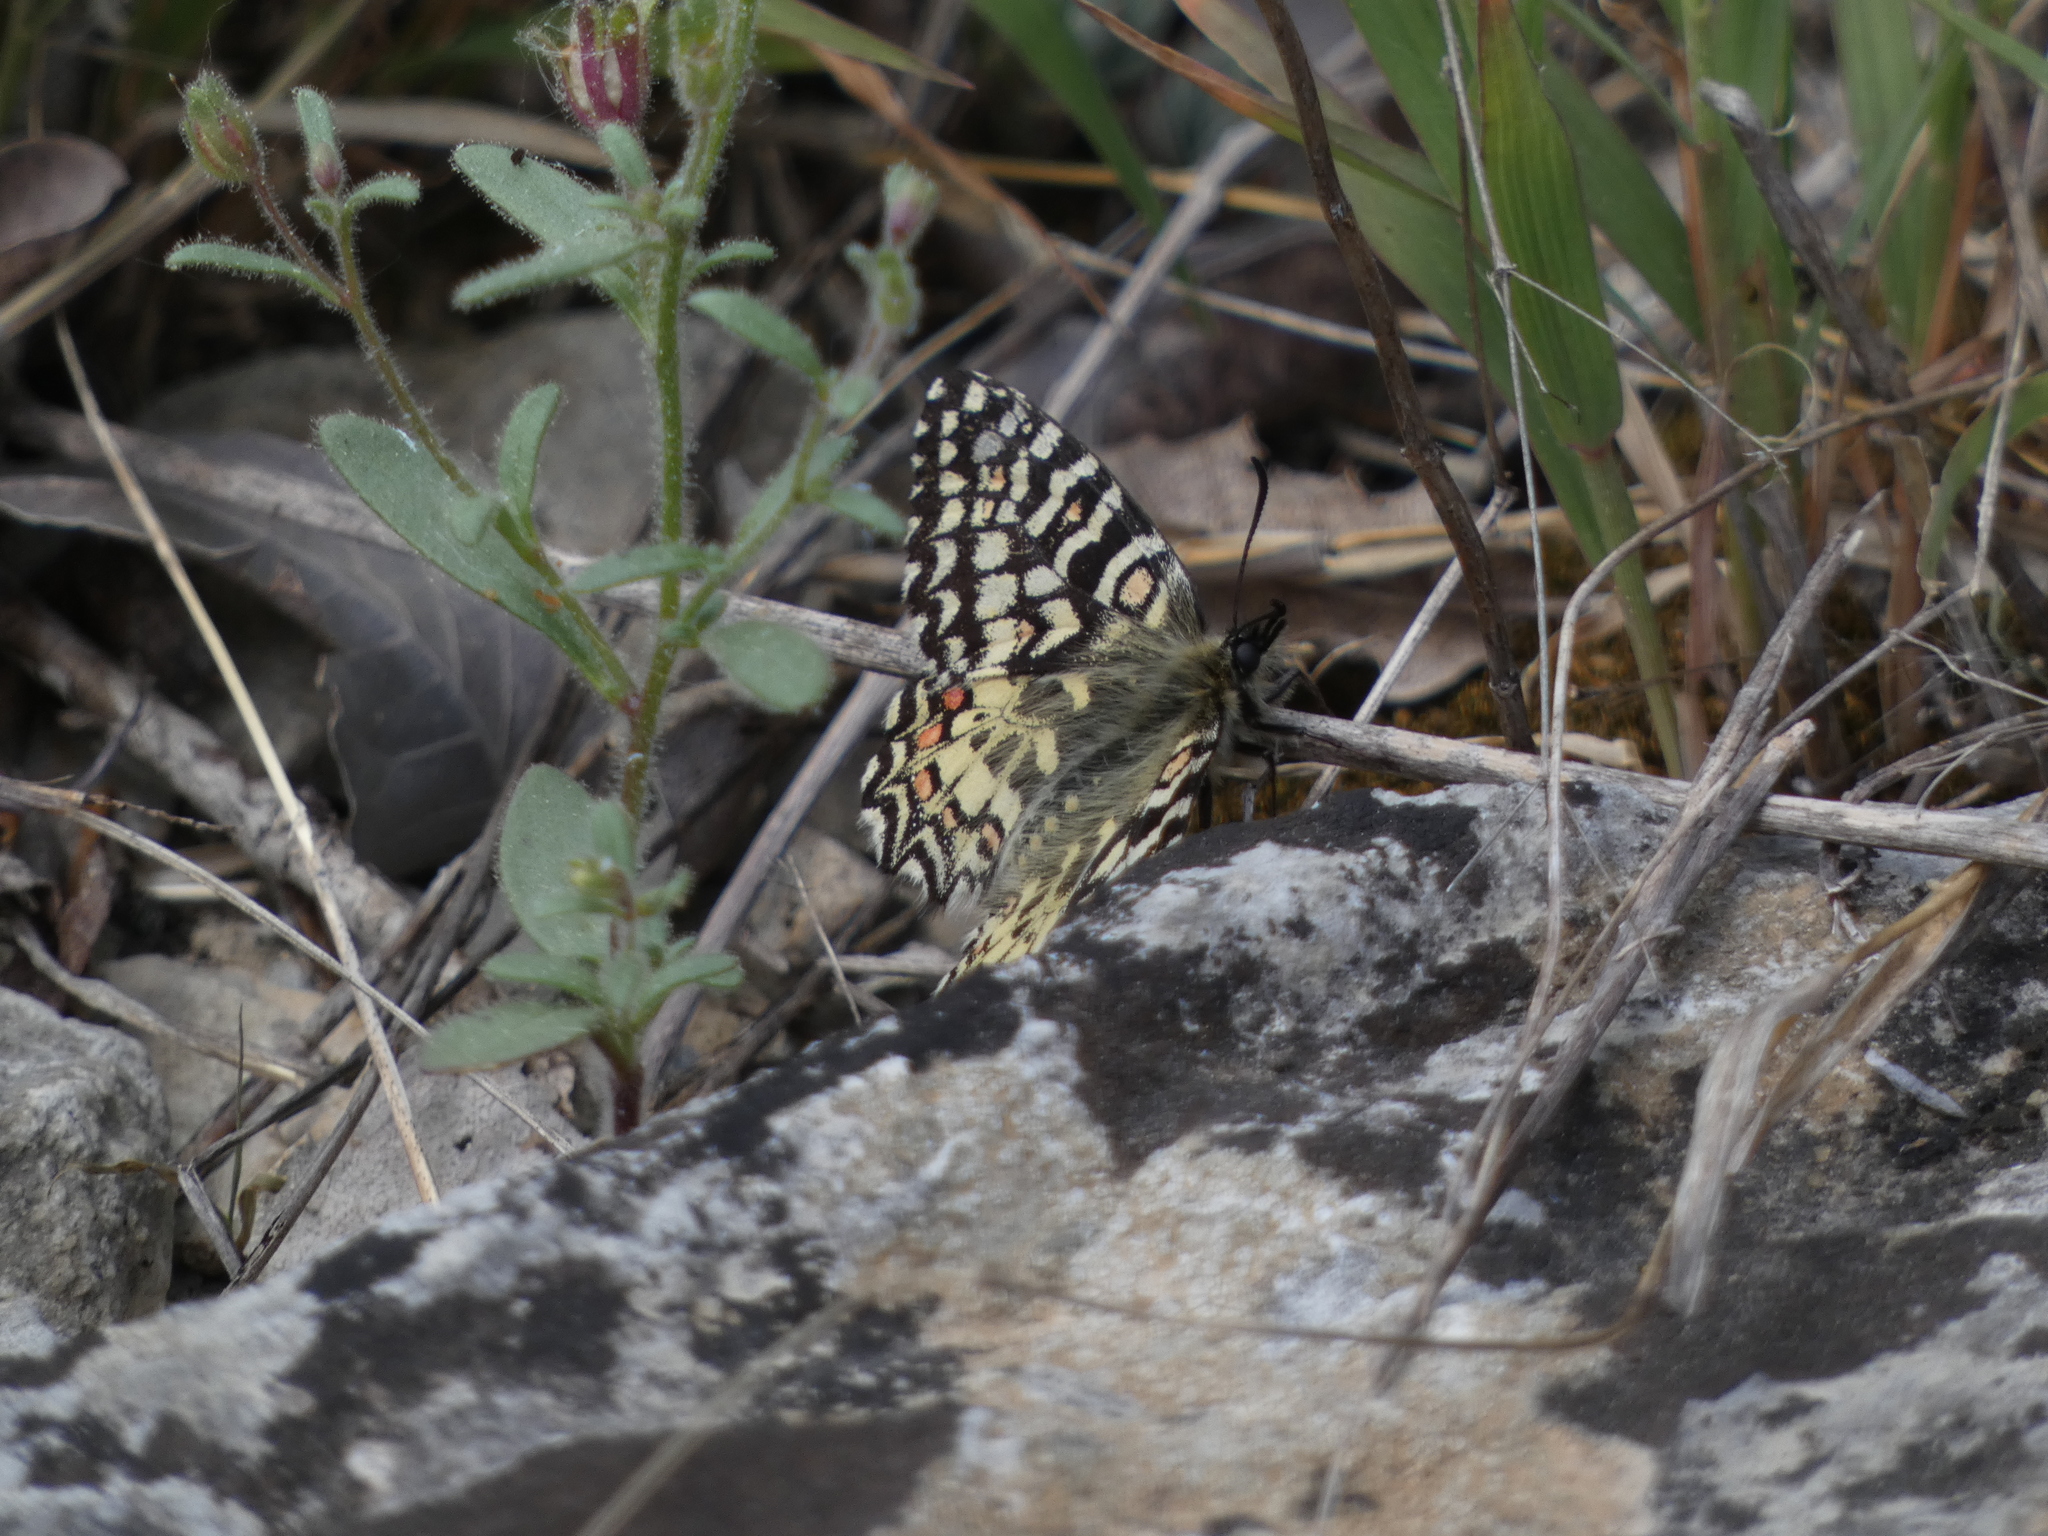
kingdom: Animalia
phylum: Arthropoda
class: Insecta
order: Lepidoptera
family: Papilionidae
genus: Zerynthia
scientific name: Zerynthia rumina
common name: Spanish festoon
